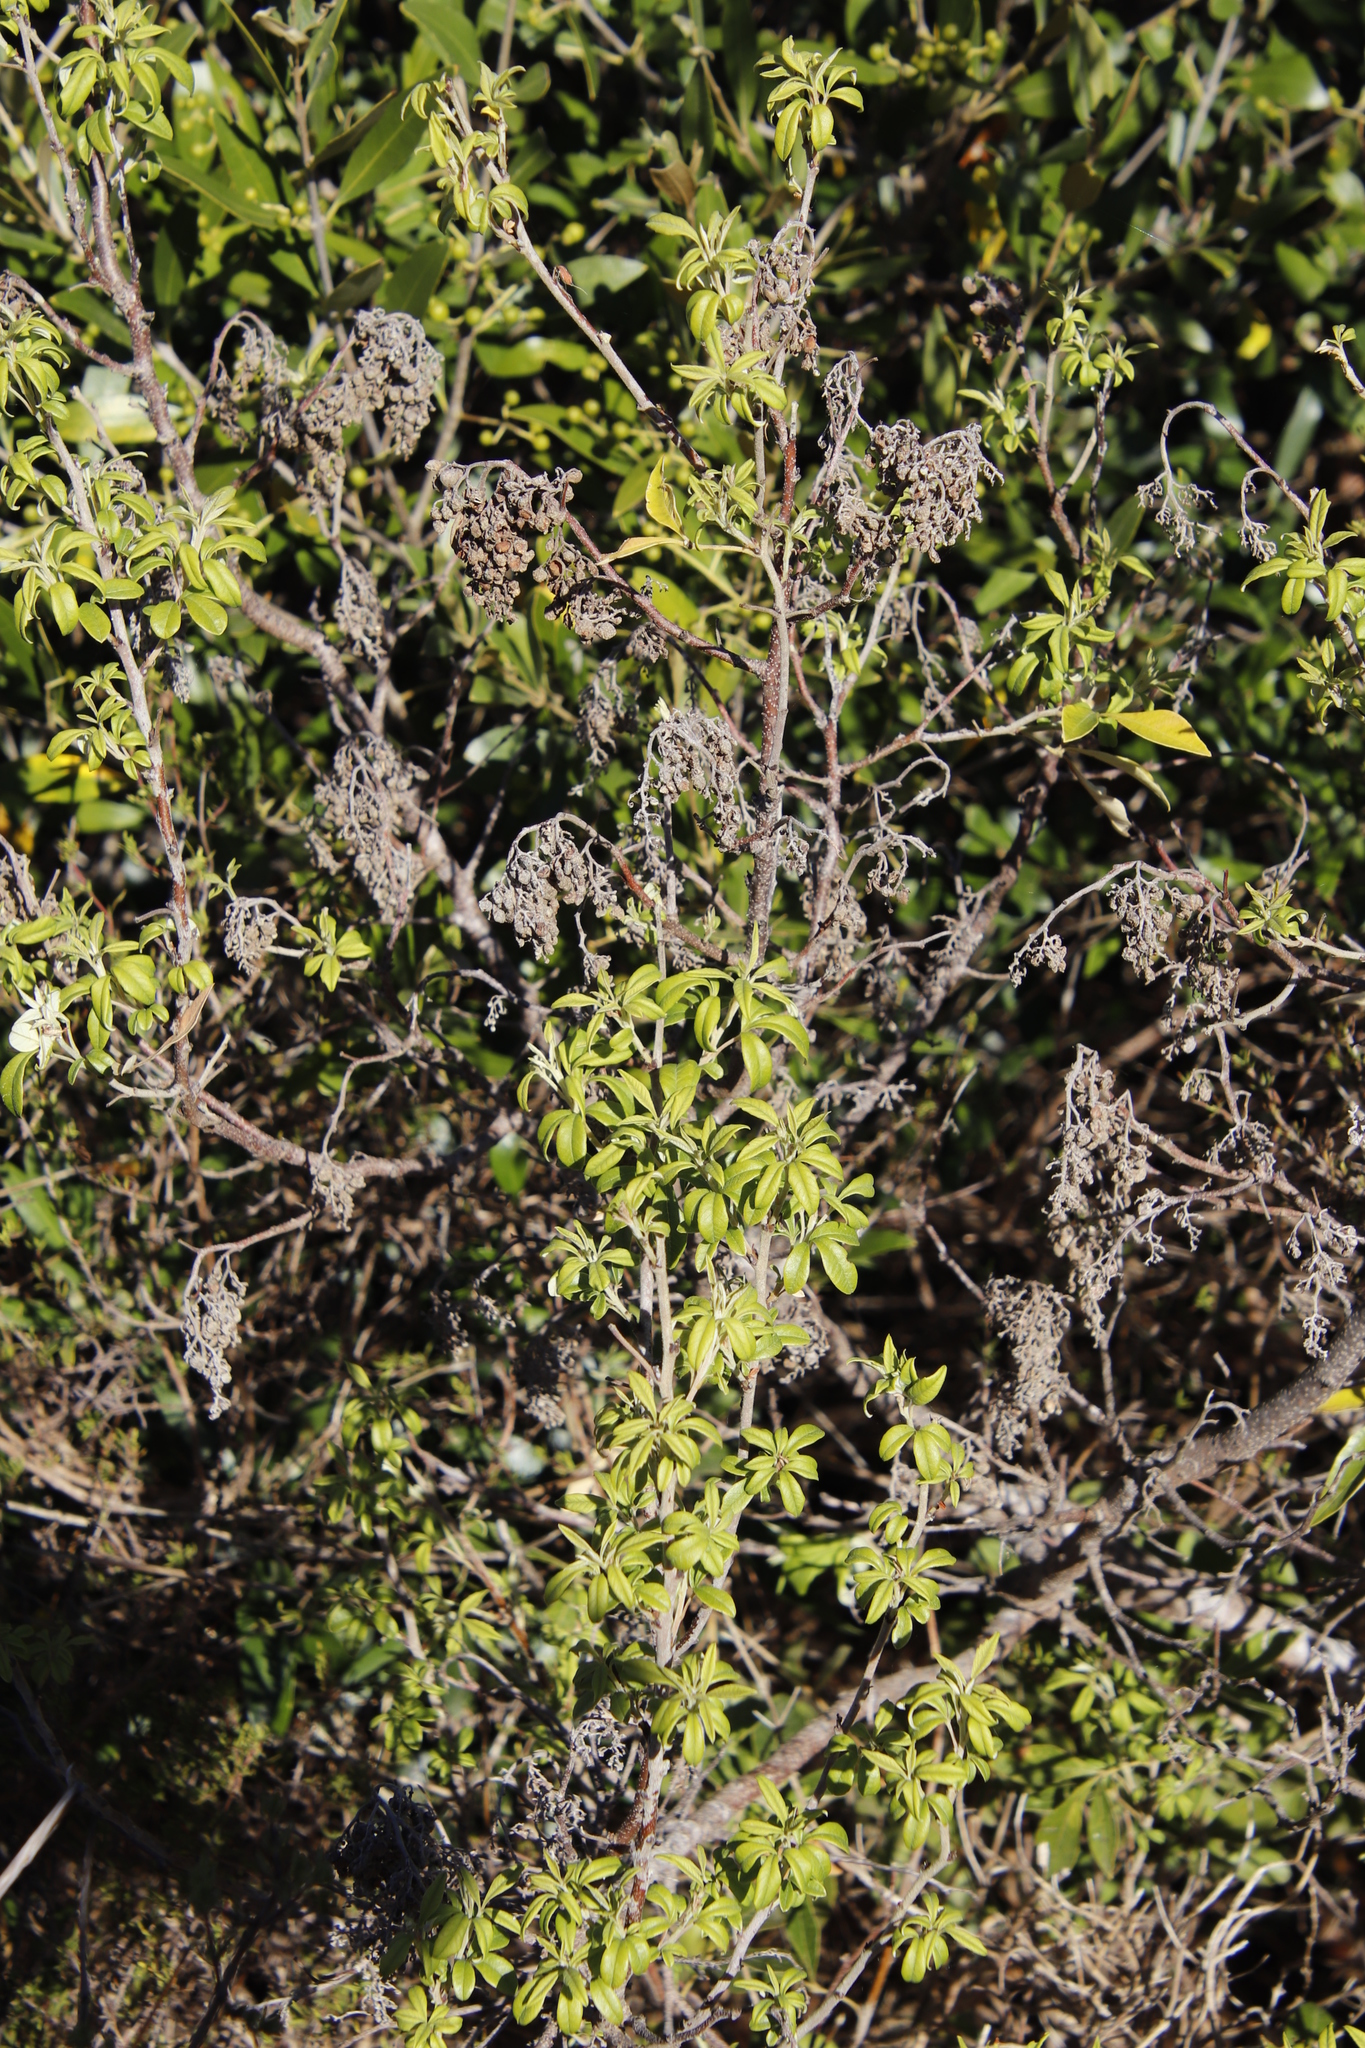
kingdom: Plantae
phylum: Tracheophyta
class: Magnoliopsida
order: Sapindales
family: Anacardiaceae
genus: Searsia
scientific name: Searsia tomentosa
